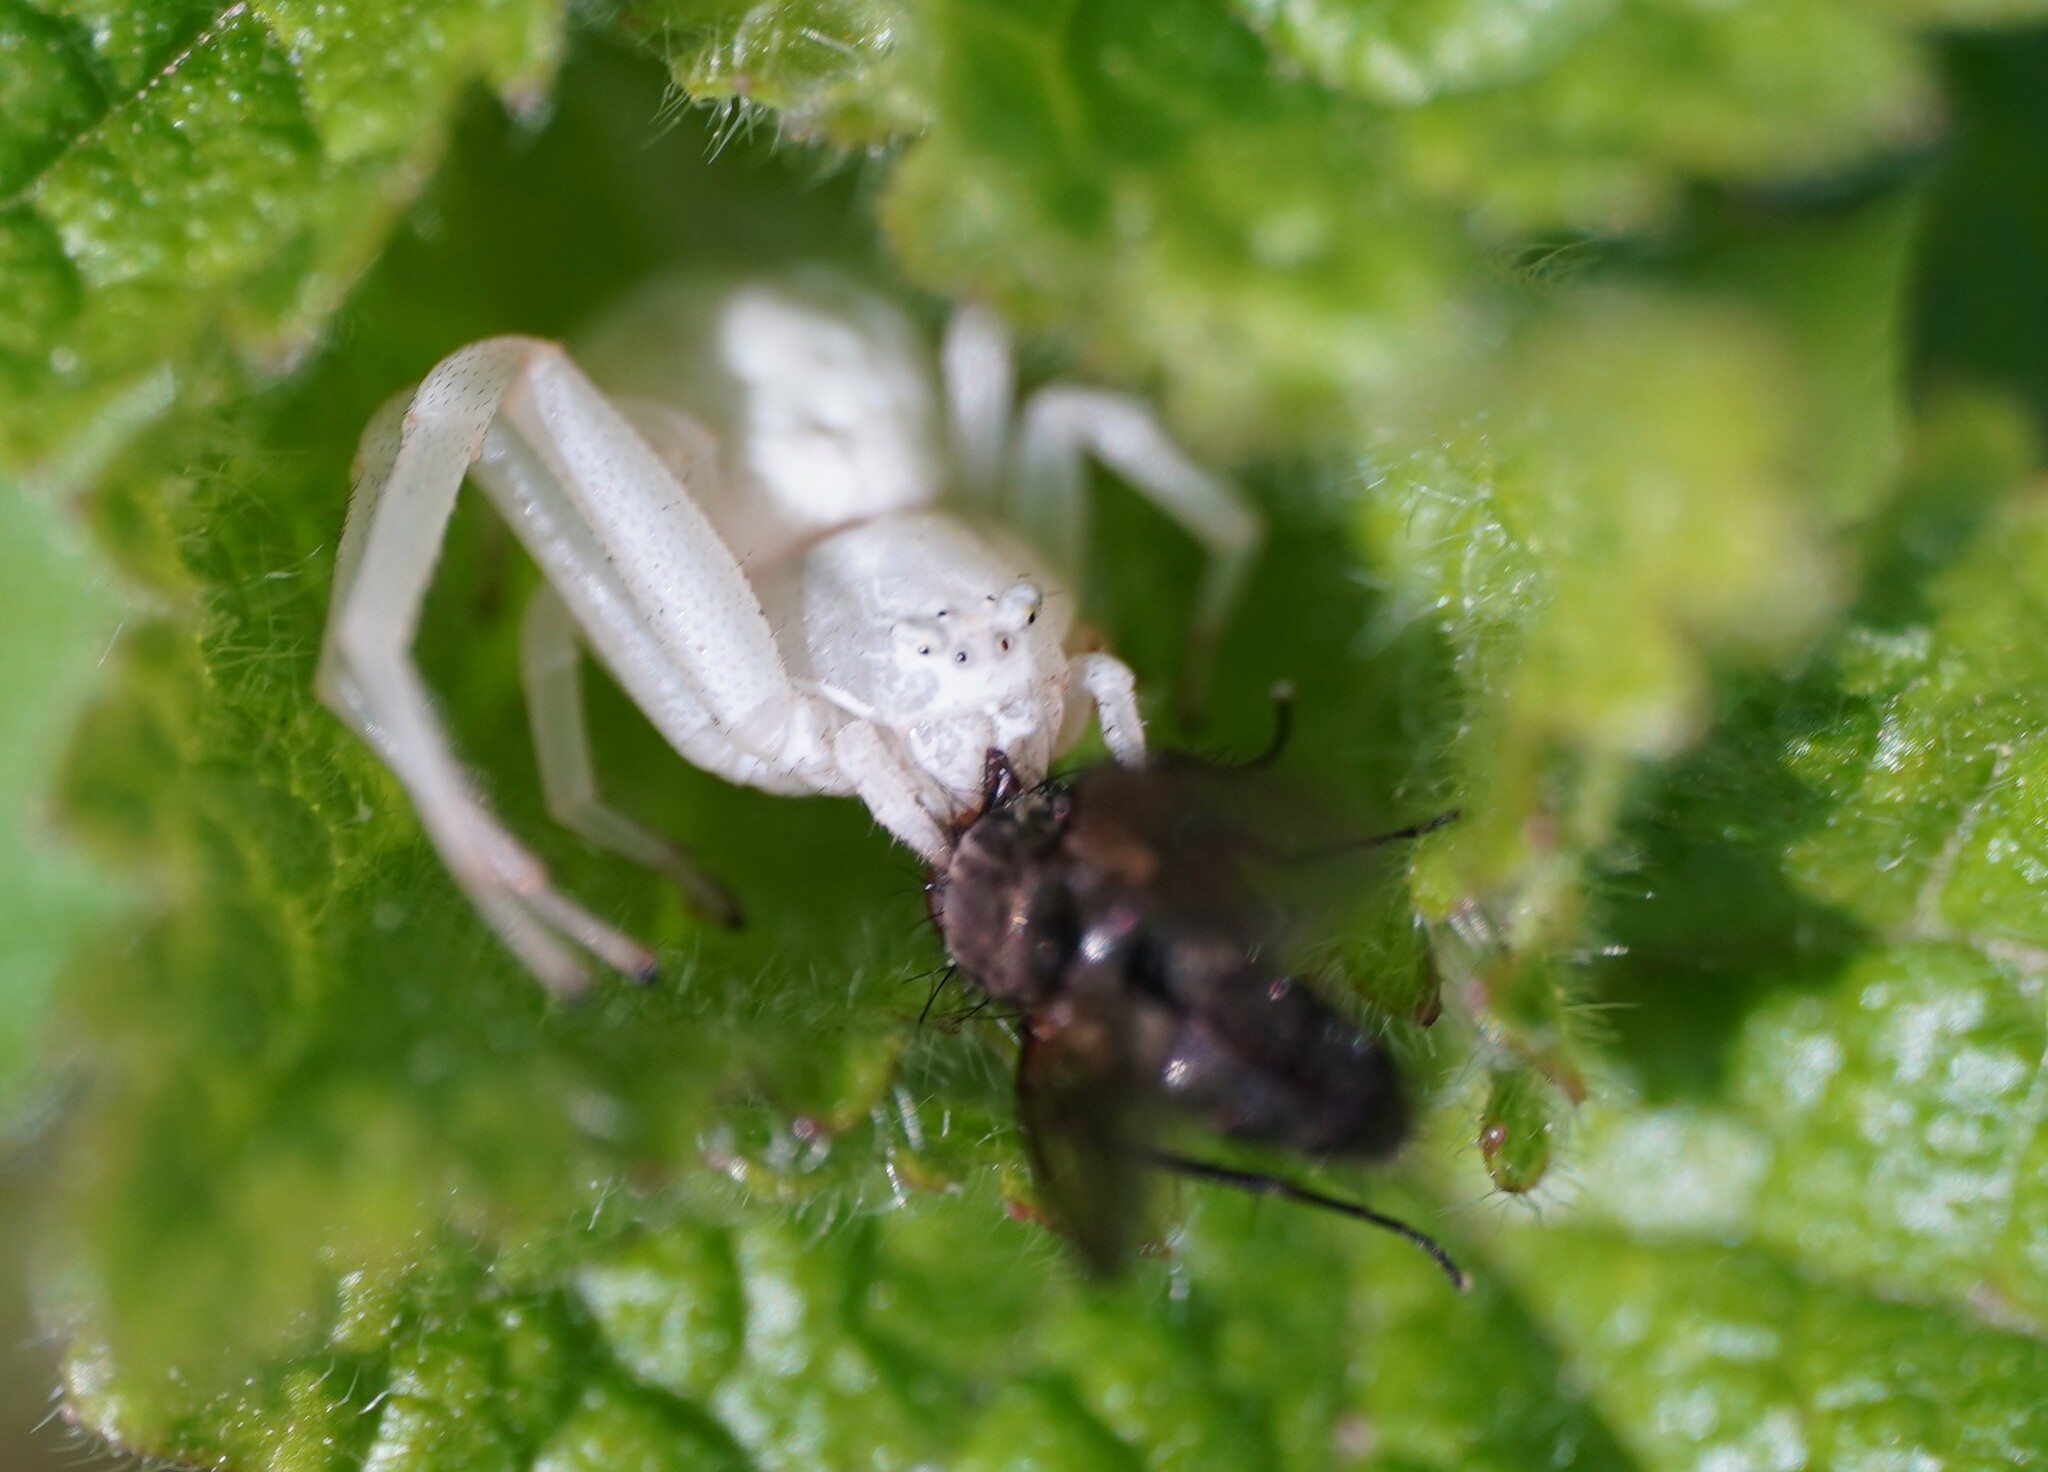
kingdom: Animalia
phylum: Arthropoda
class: Arachnida
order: Araneae
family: Thomisidae
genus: Misumena
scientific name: Misumena vatia
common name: Goldenrod crab spider
